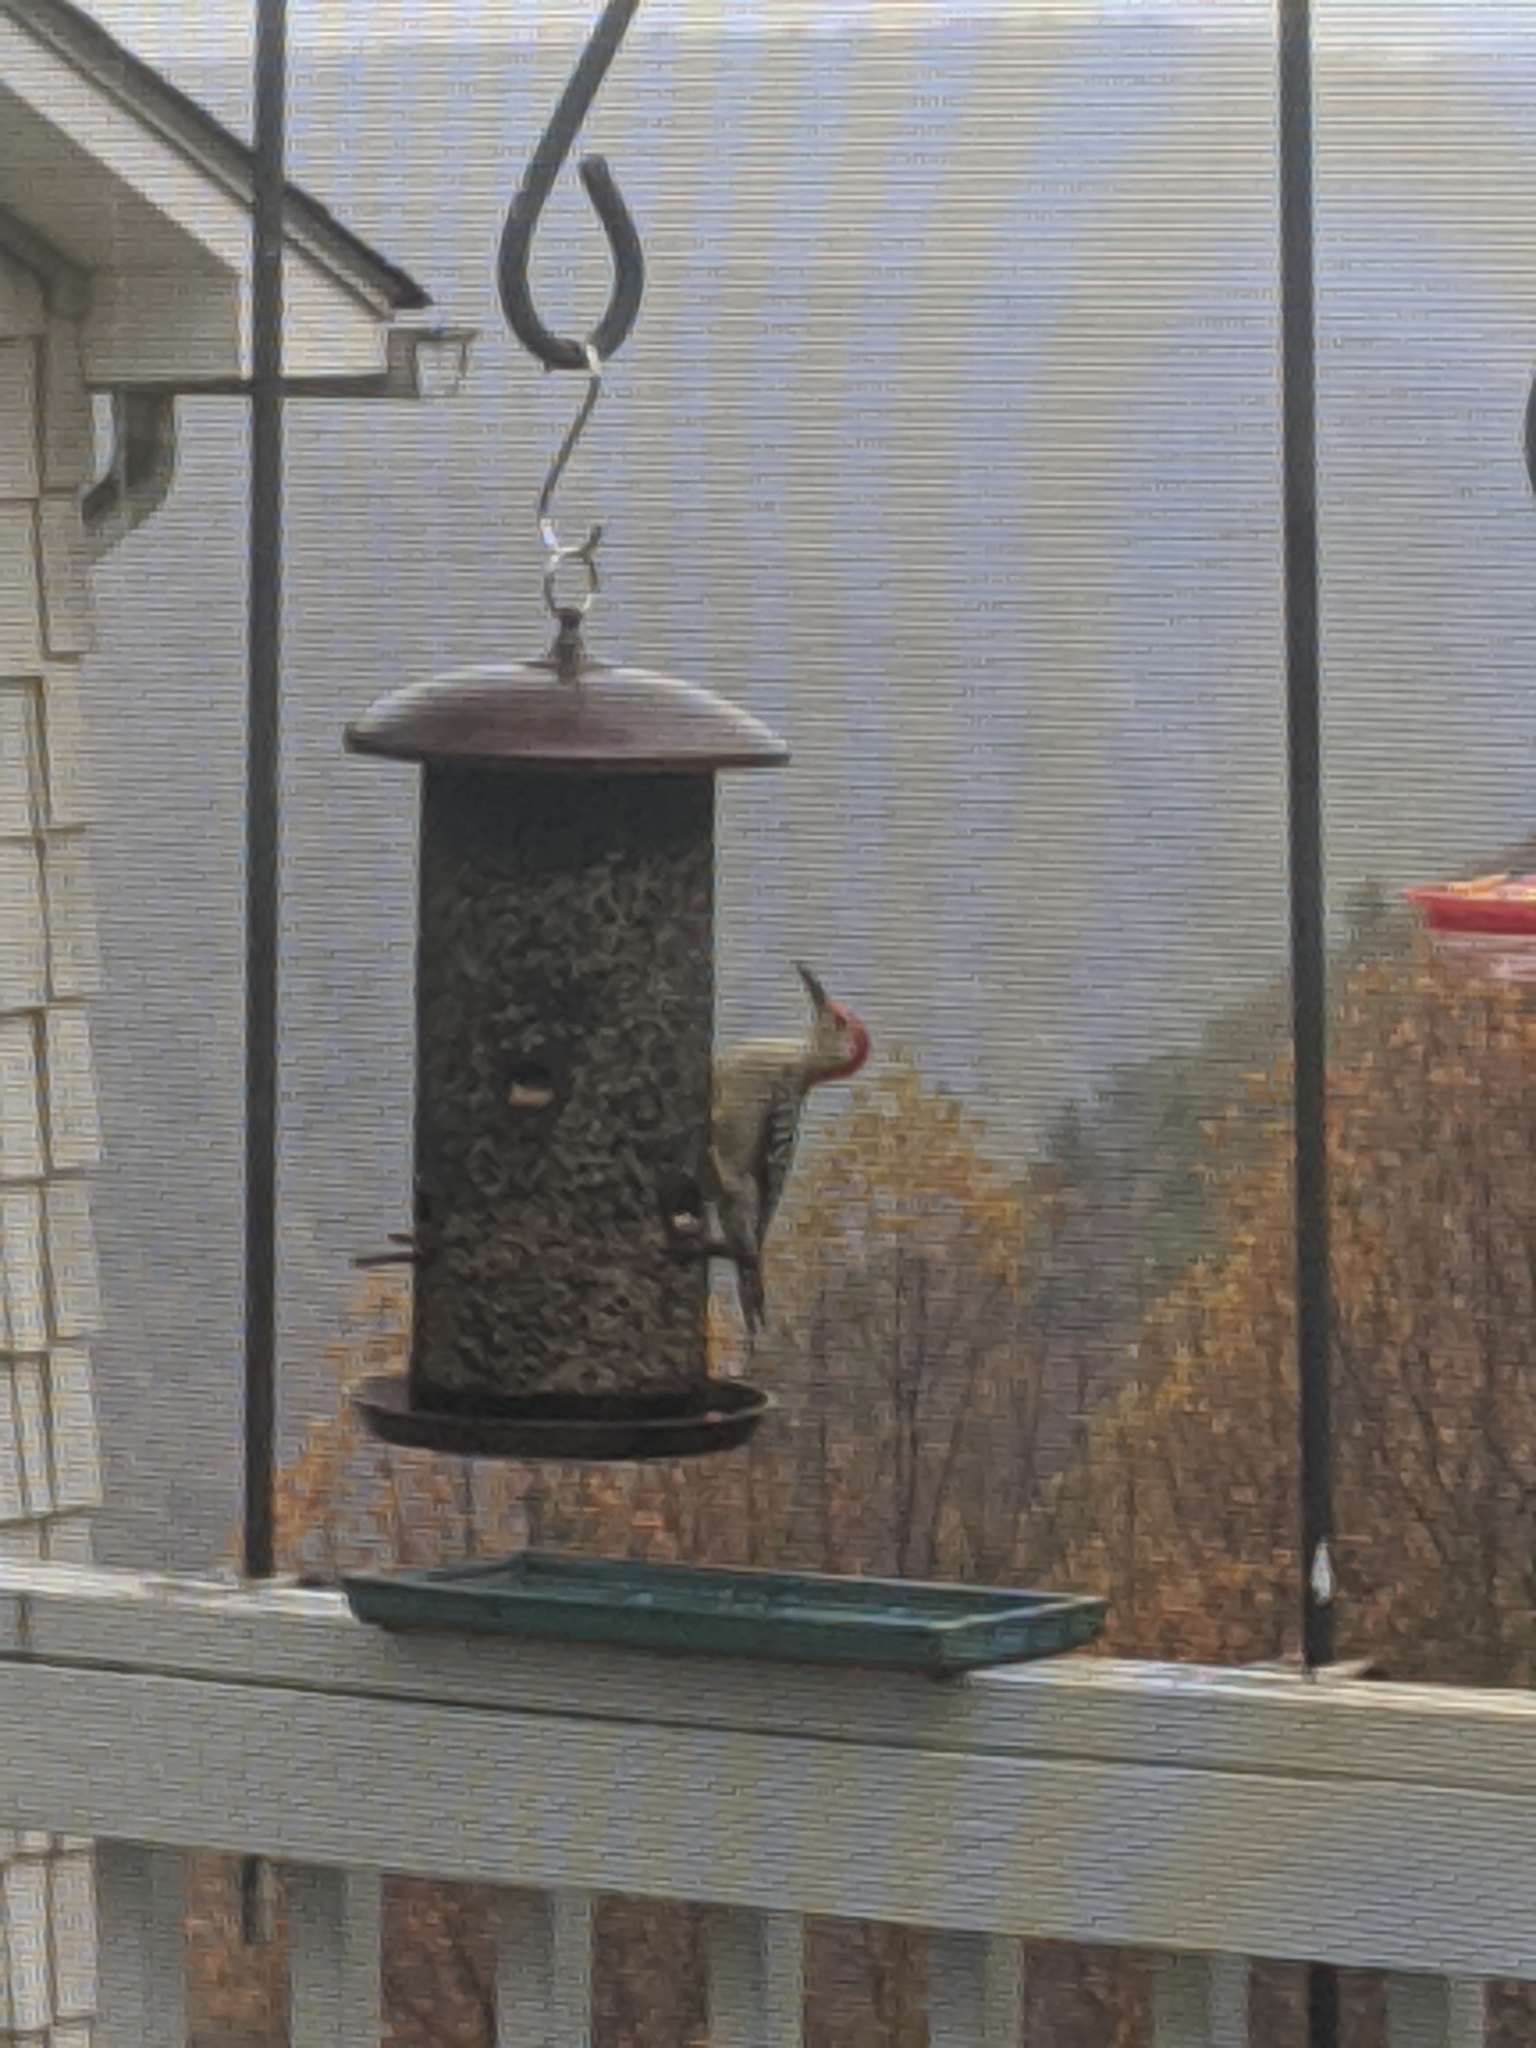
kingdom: Animalia
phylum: Chordata
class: Aves
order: Piciformes
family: Picidae
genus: Melanerpes
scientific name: Melanerpes carolinus
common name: Red-bellied woodpecker
